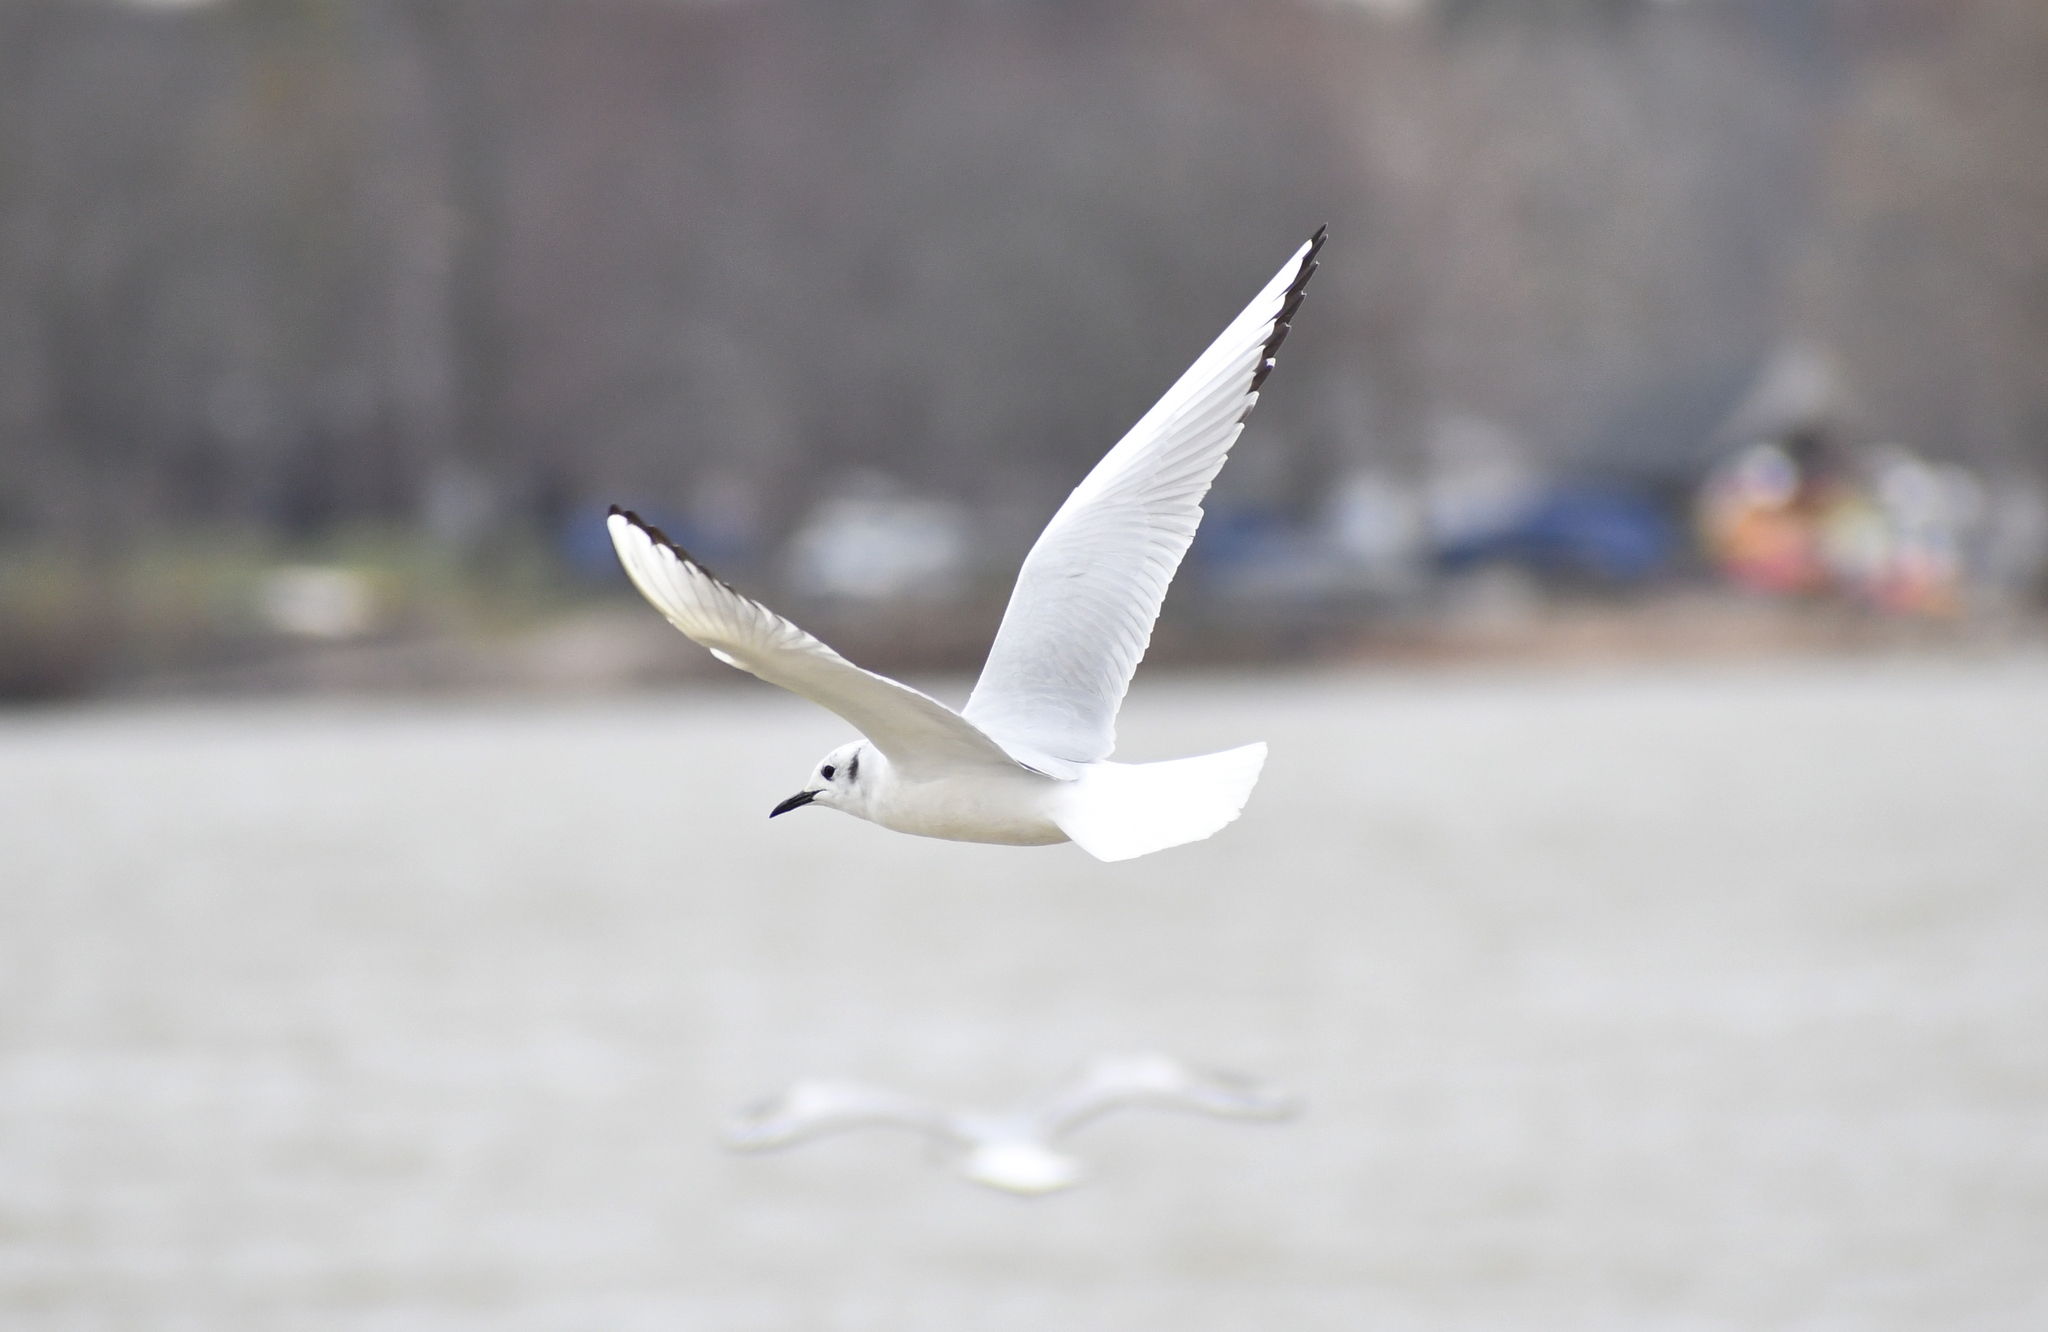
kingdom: Animalia
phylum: Chordata
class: Aves
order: Charadriiformes
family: Laridae
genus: Chroicocephalus
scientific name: Chroicocephalus philadelphia
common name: Bonaparte's gull
